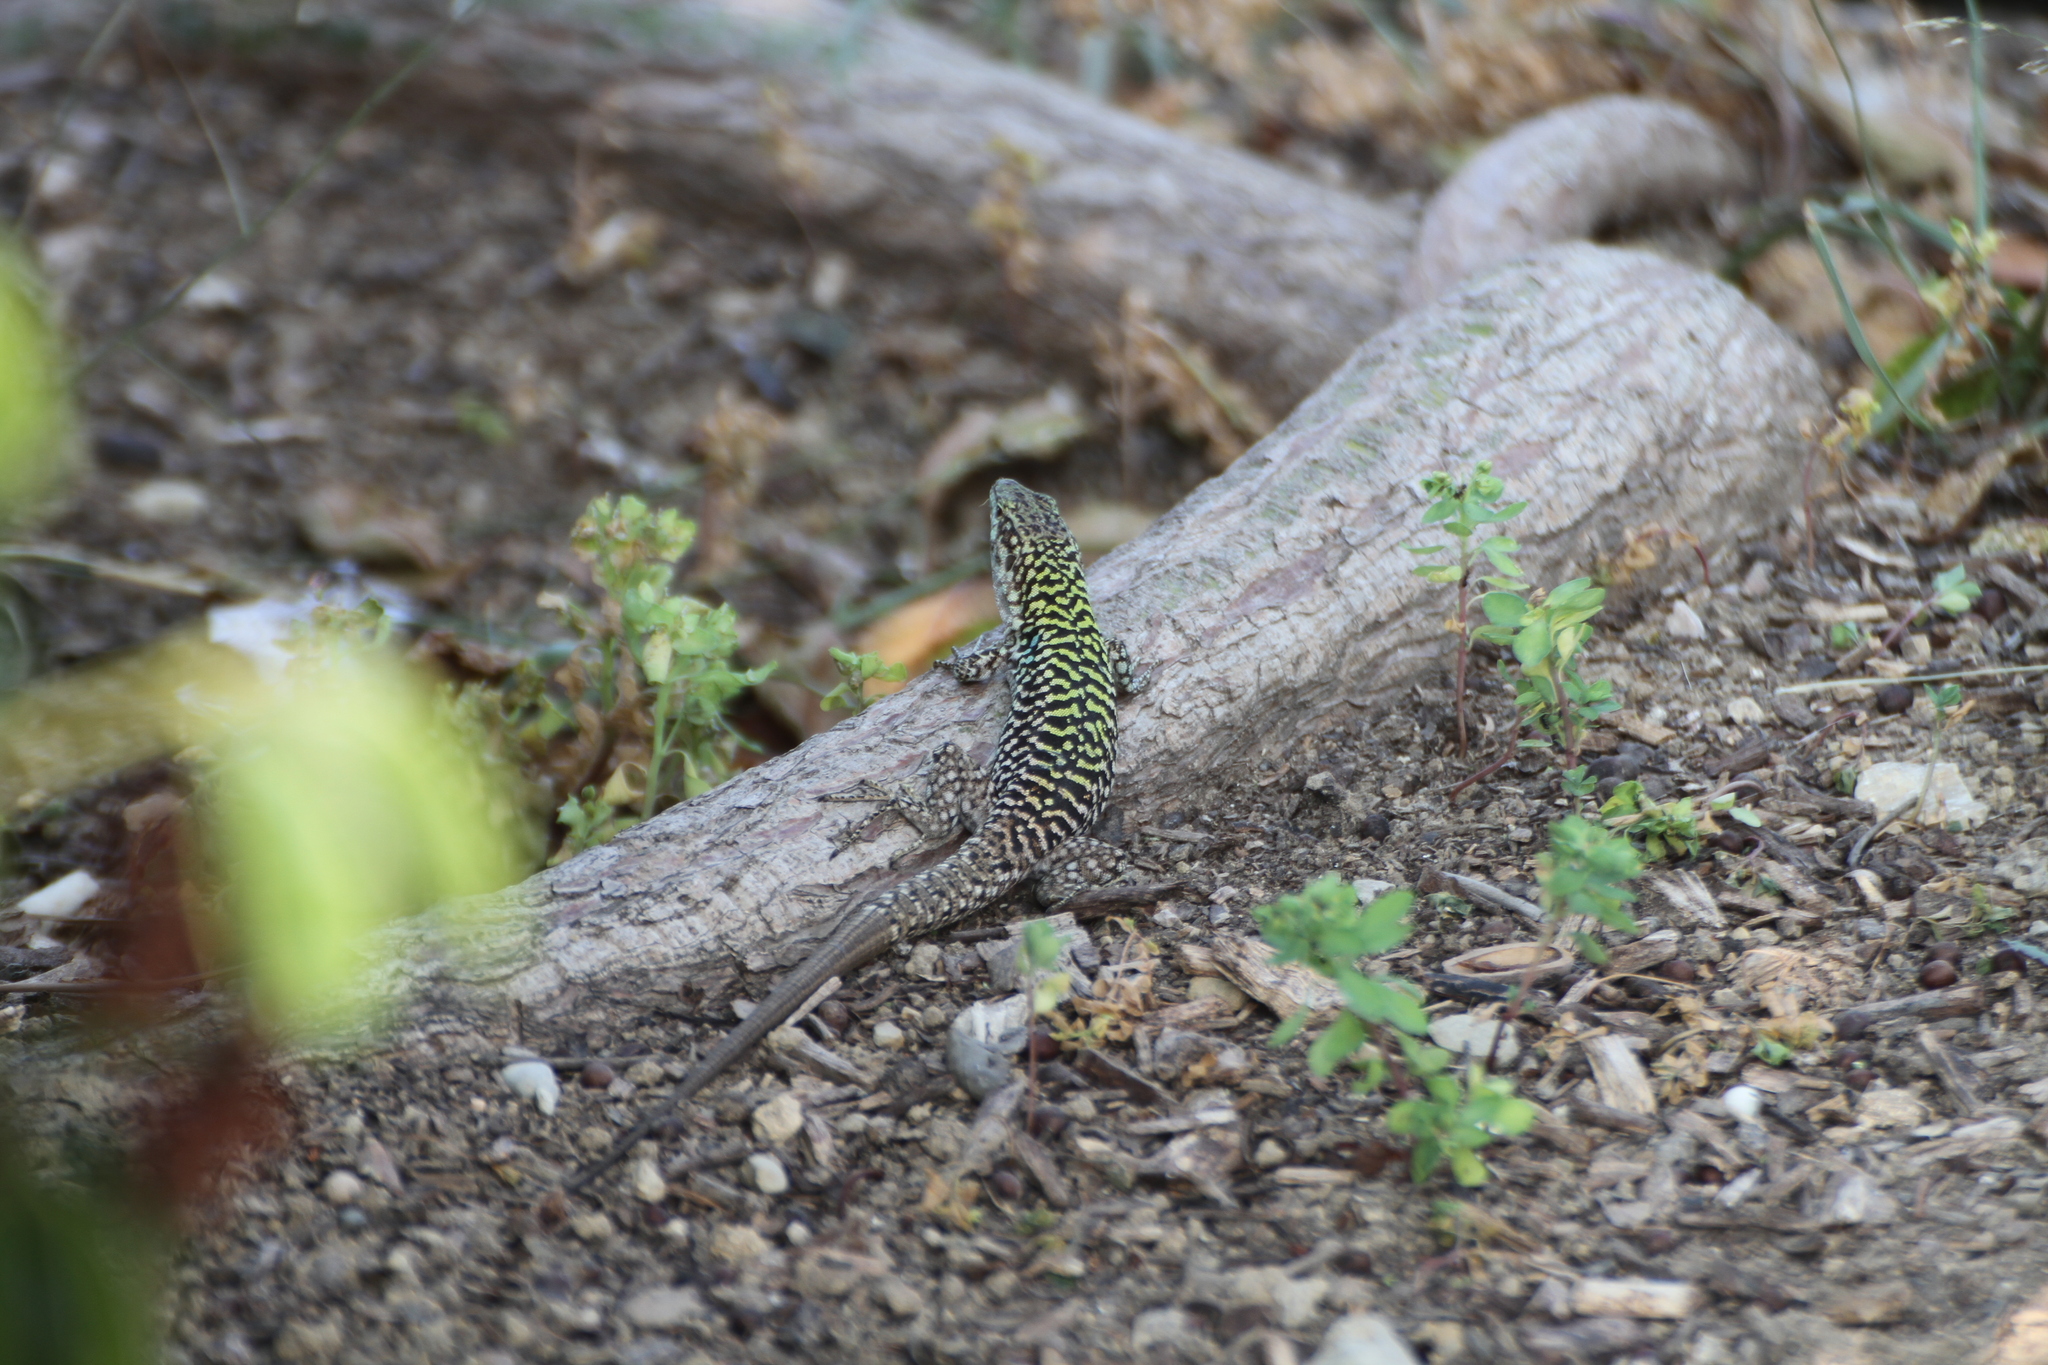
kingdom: Animalia
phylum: Chordata
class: Squamata
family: Lacertidae
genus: Podarcis
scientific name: Podarcis siculus
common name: Italian wall lizard
